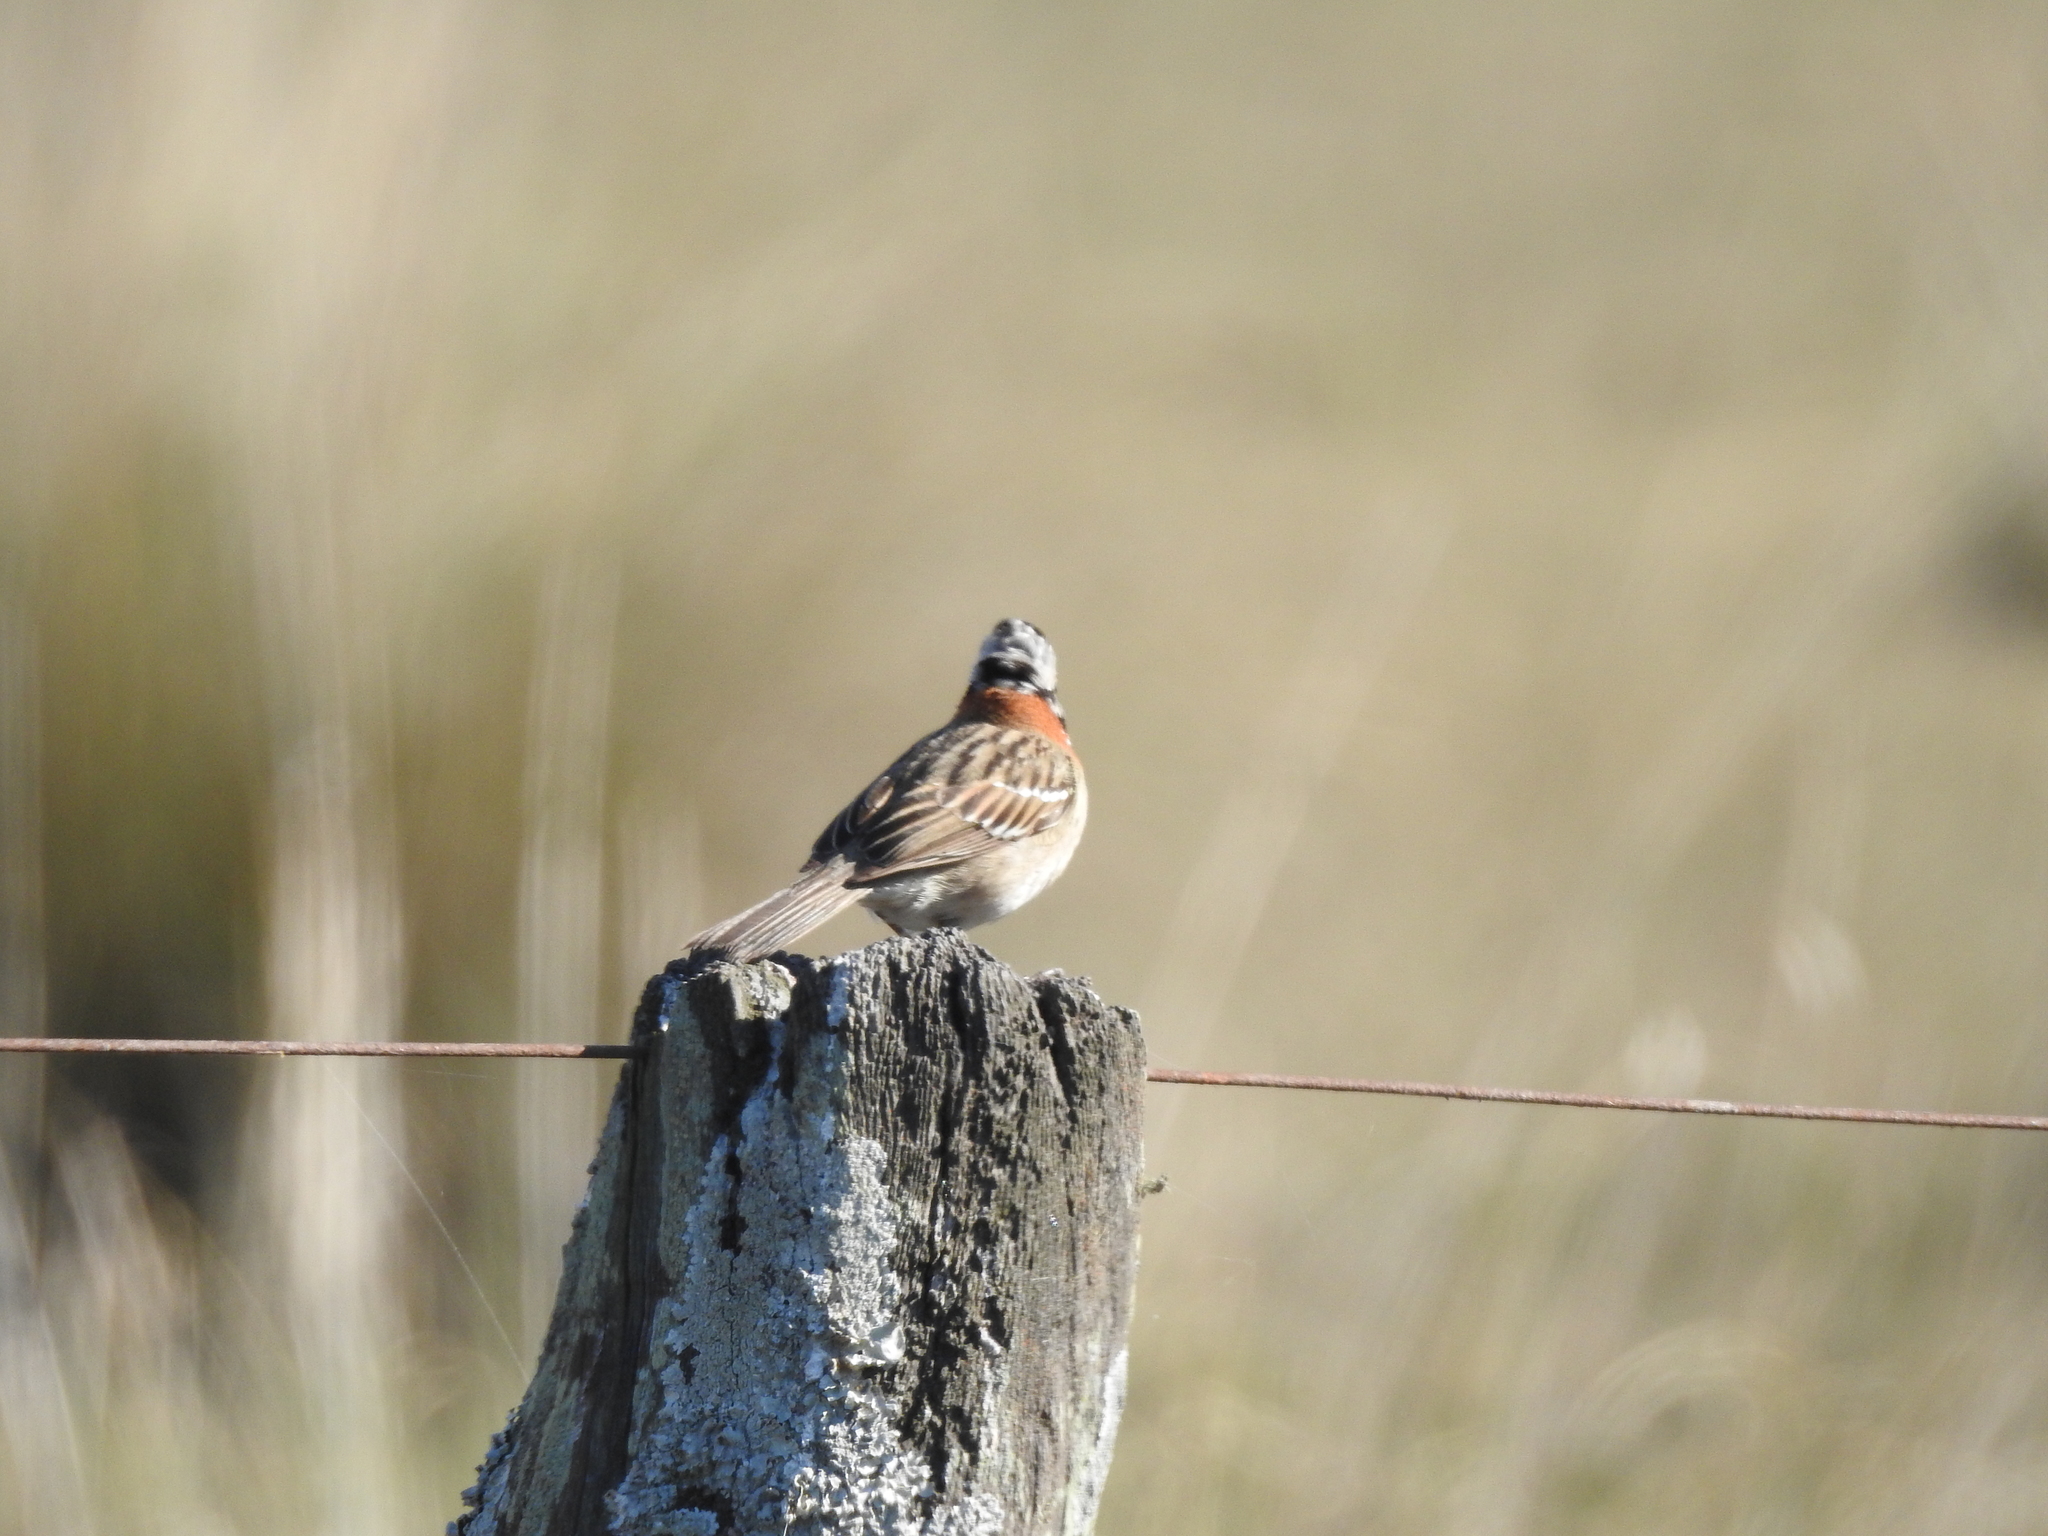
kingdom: Animalia
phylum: Chordata
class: Aves
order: Passeriformes
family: Passerellidae
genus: Zonotrichia
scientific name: Zonotrichia capensis
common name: Rufous-collared sparrow
